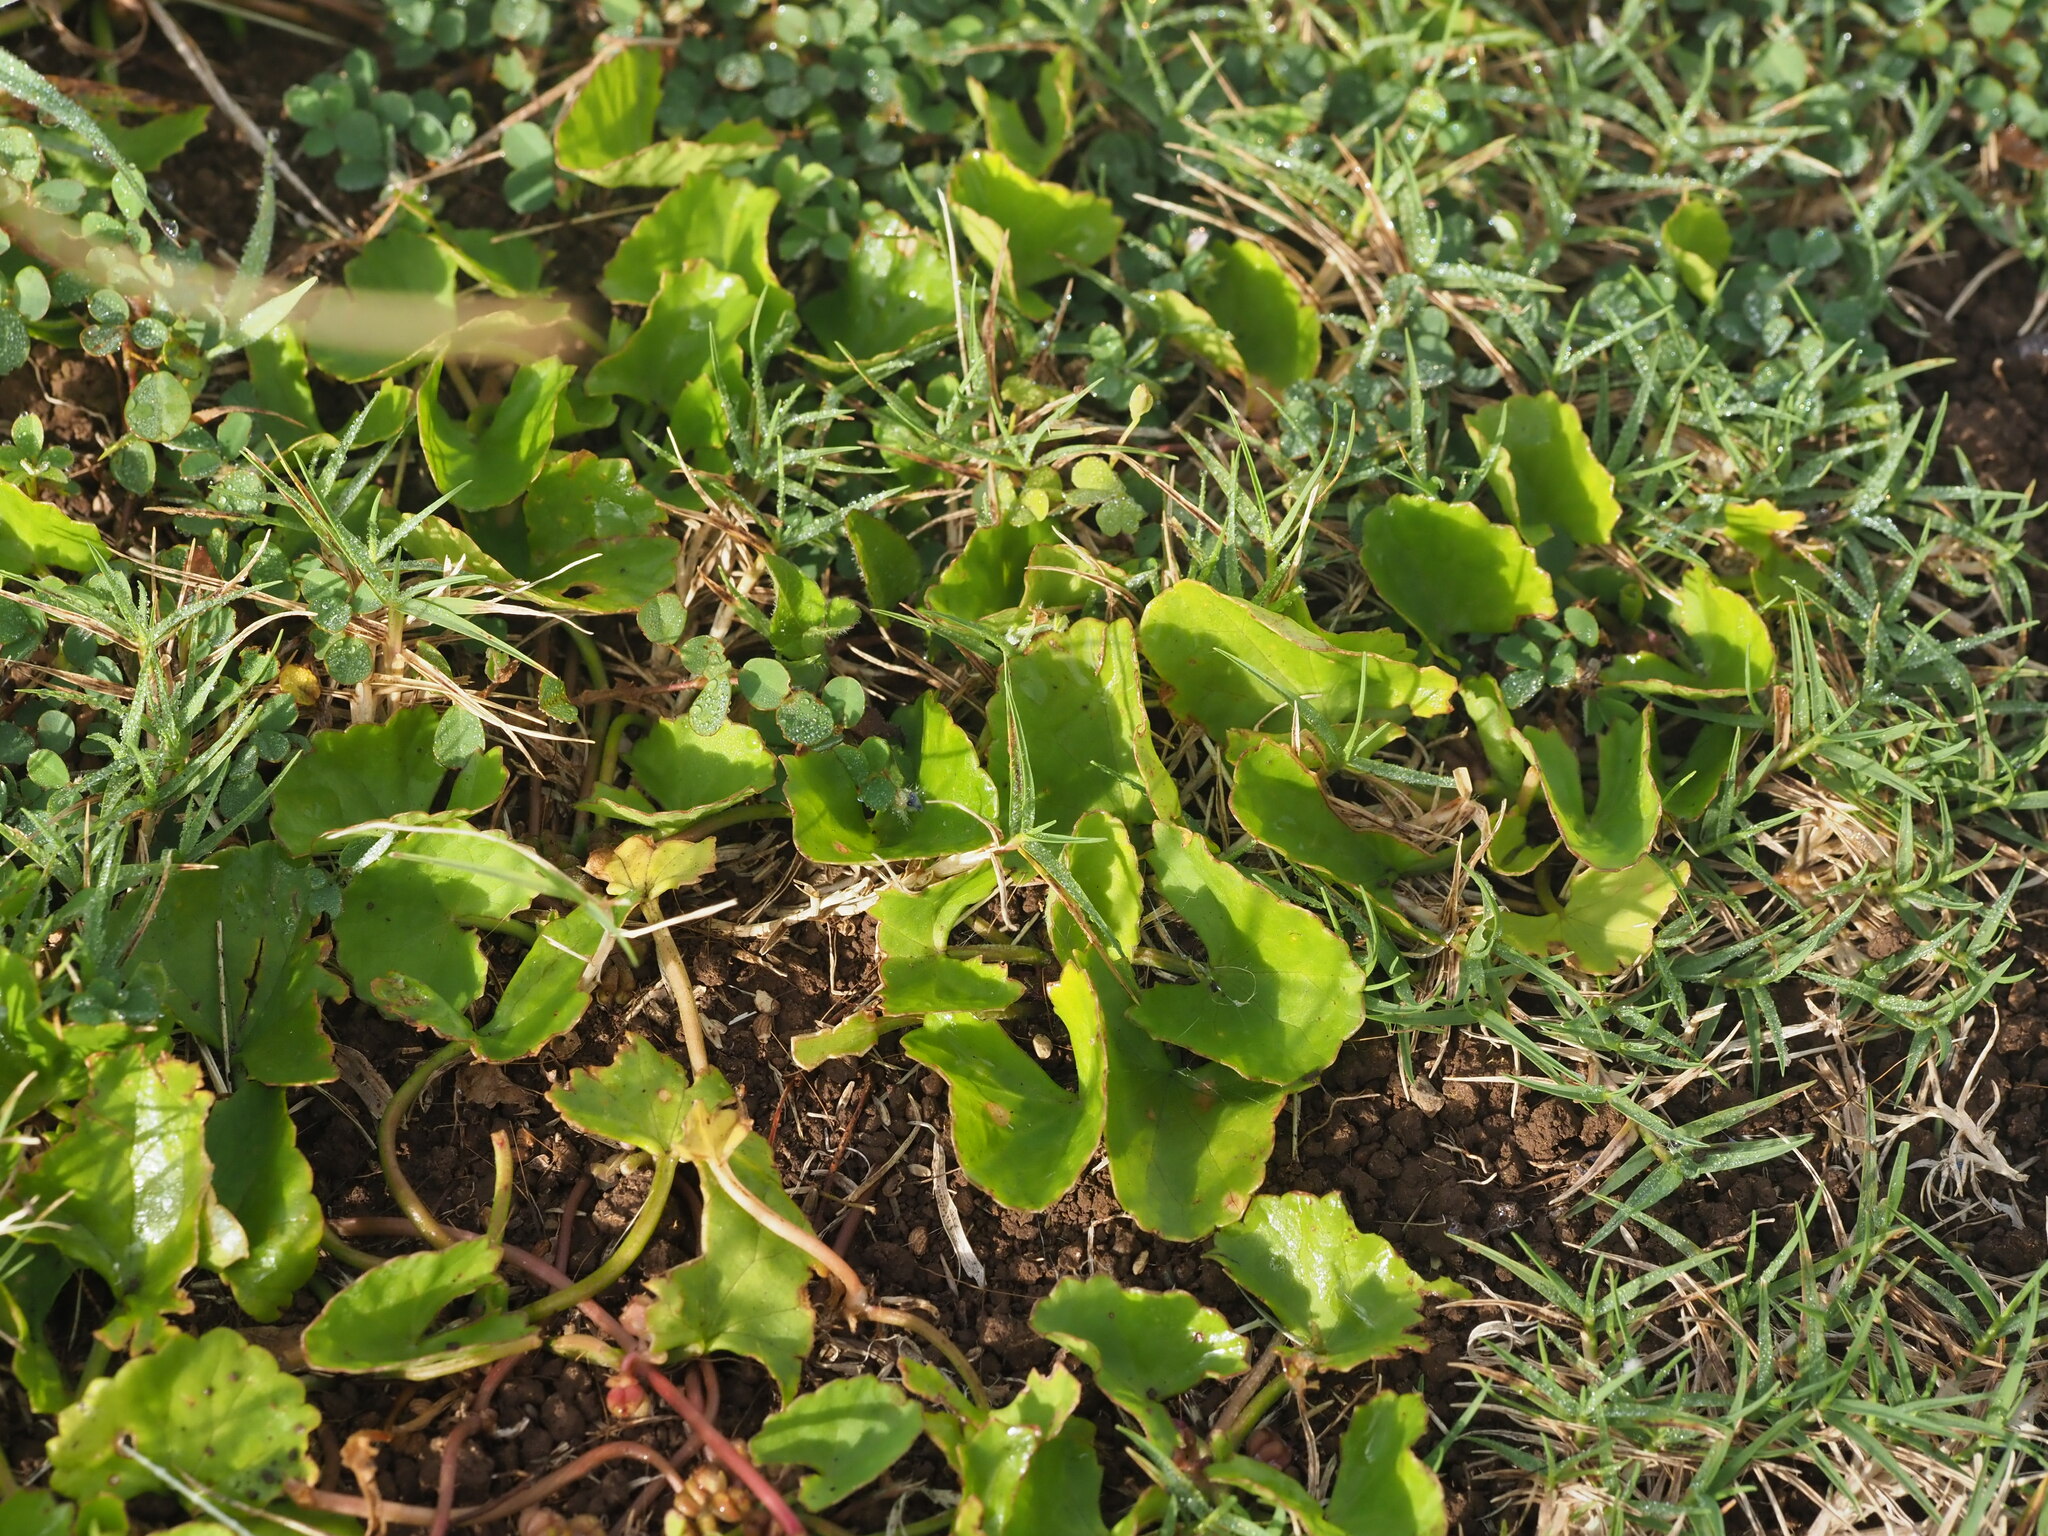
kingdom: Plantae
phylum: Tracheophyta
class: Magnoliopsida
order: Apiales
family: Apiaceae
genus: Centella
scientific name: Centella asiatica
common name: Spadeleaf
